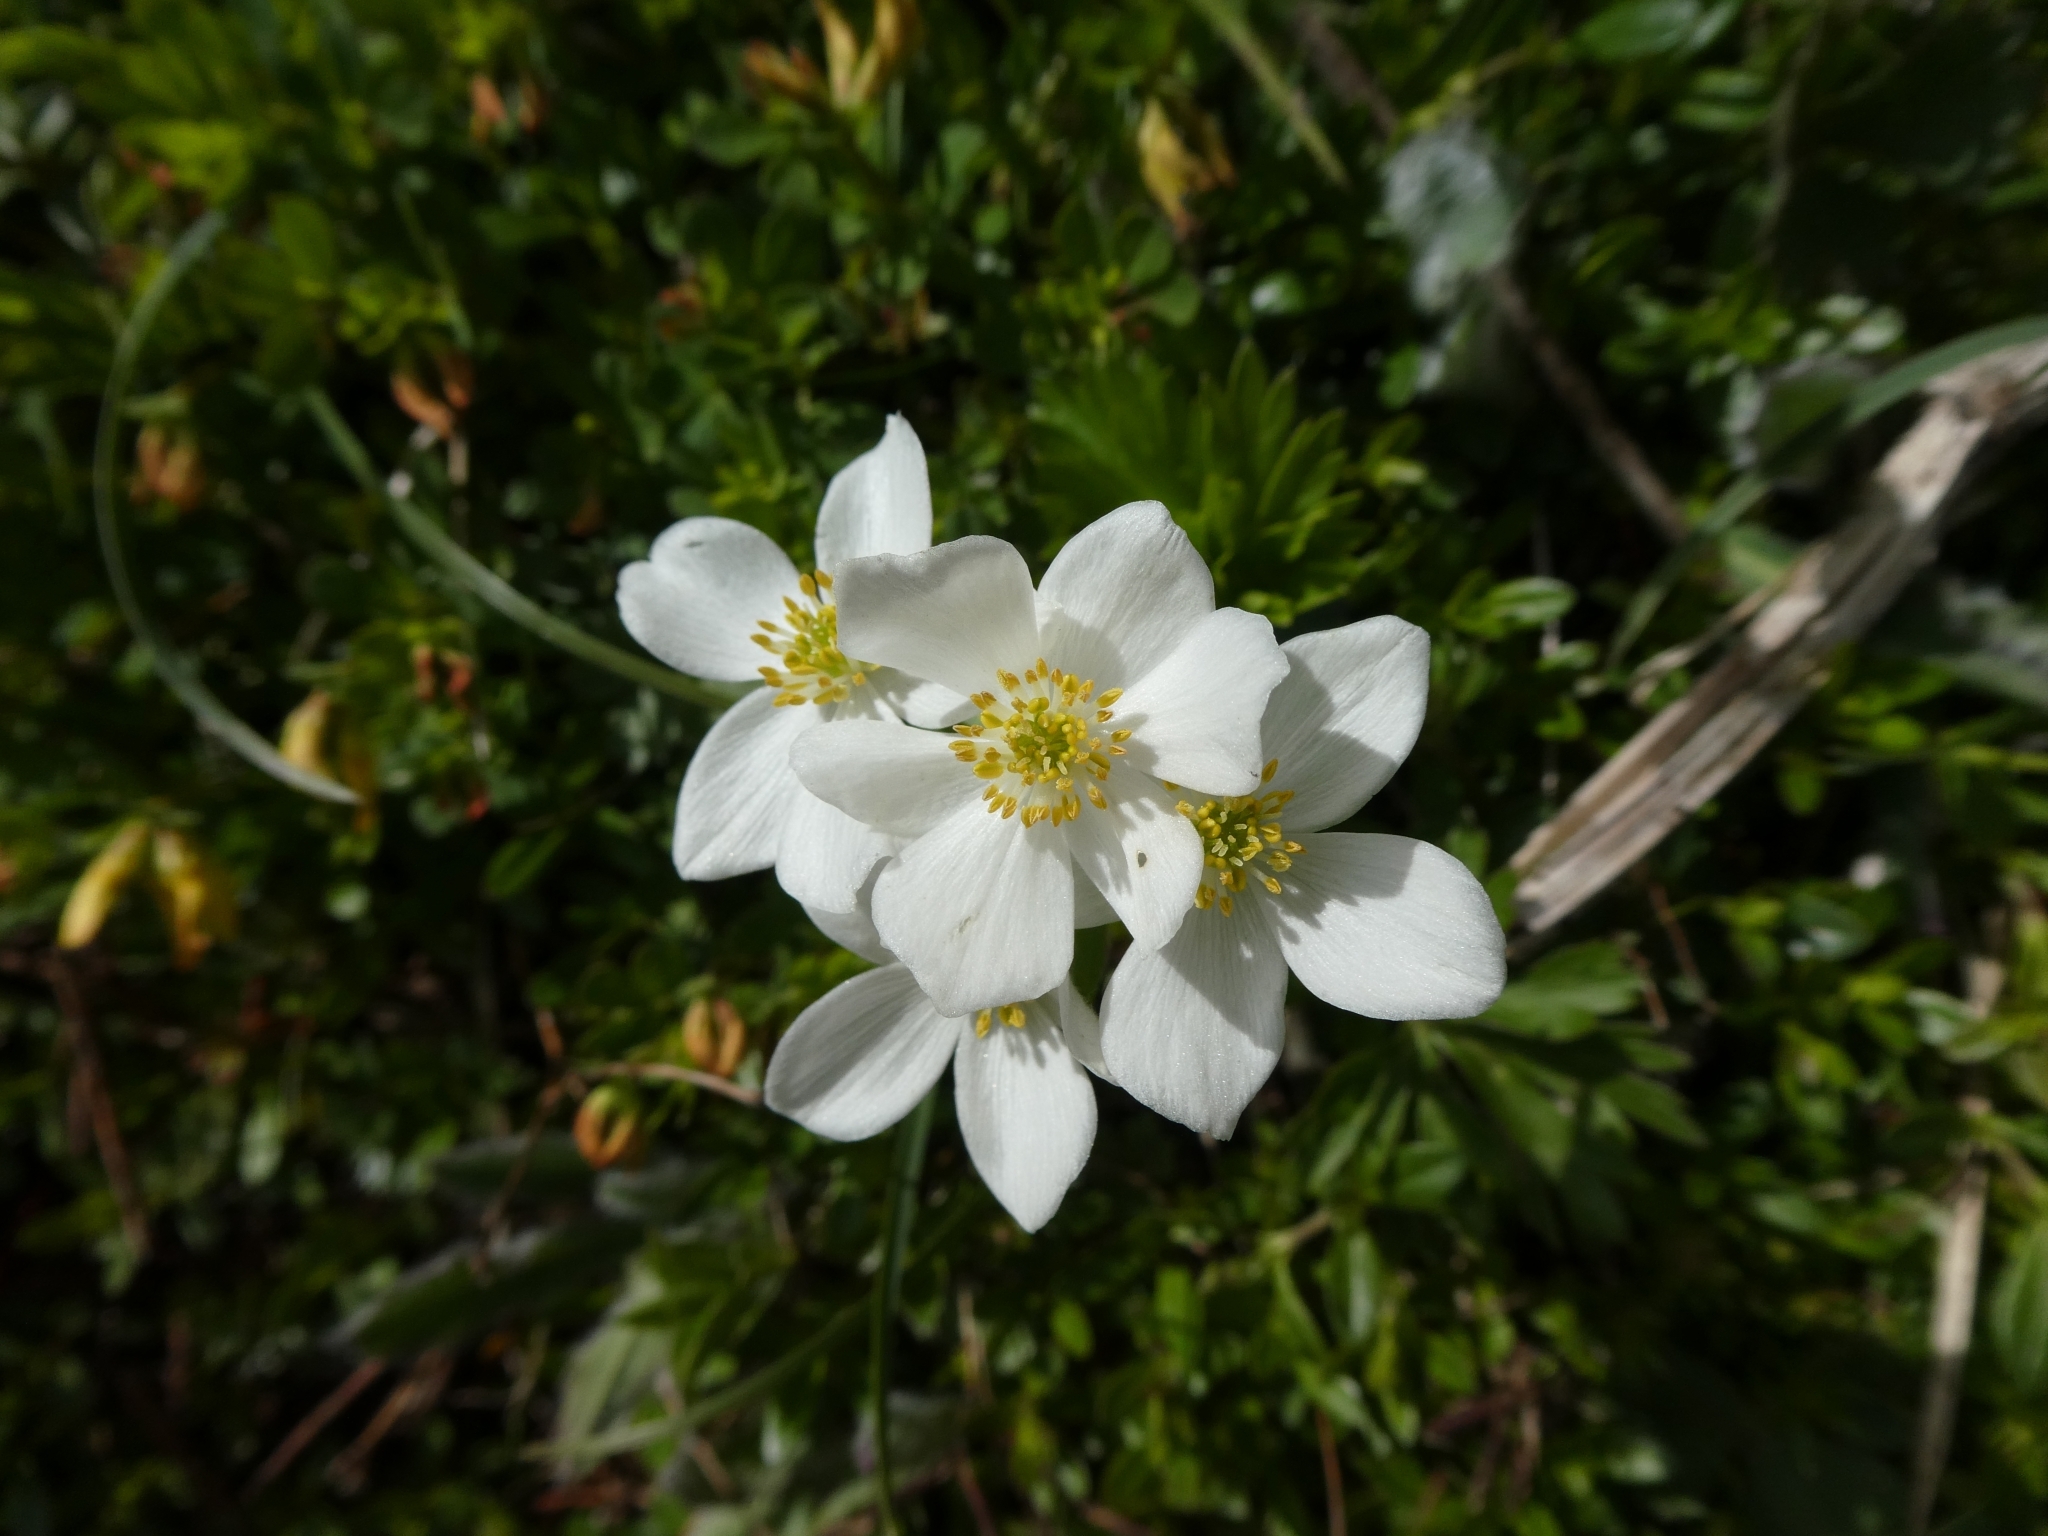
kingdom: Plantae
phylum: Tracheophyta
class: Magnoliopsida
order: Ranunculales
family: Ranunculaceae
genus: Anemonastrum
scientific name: Anemonastrum narcissiflorum
